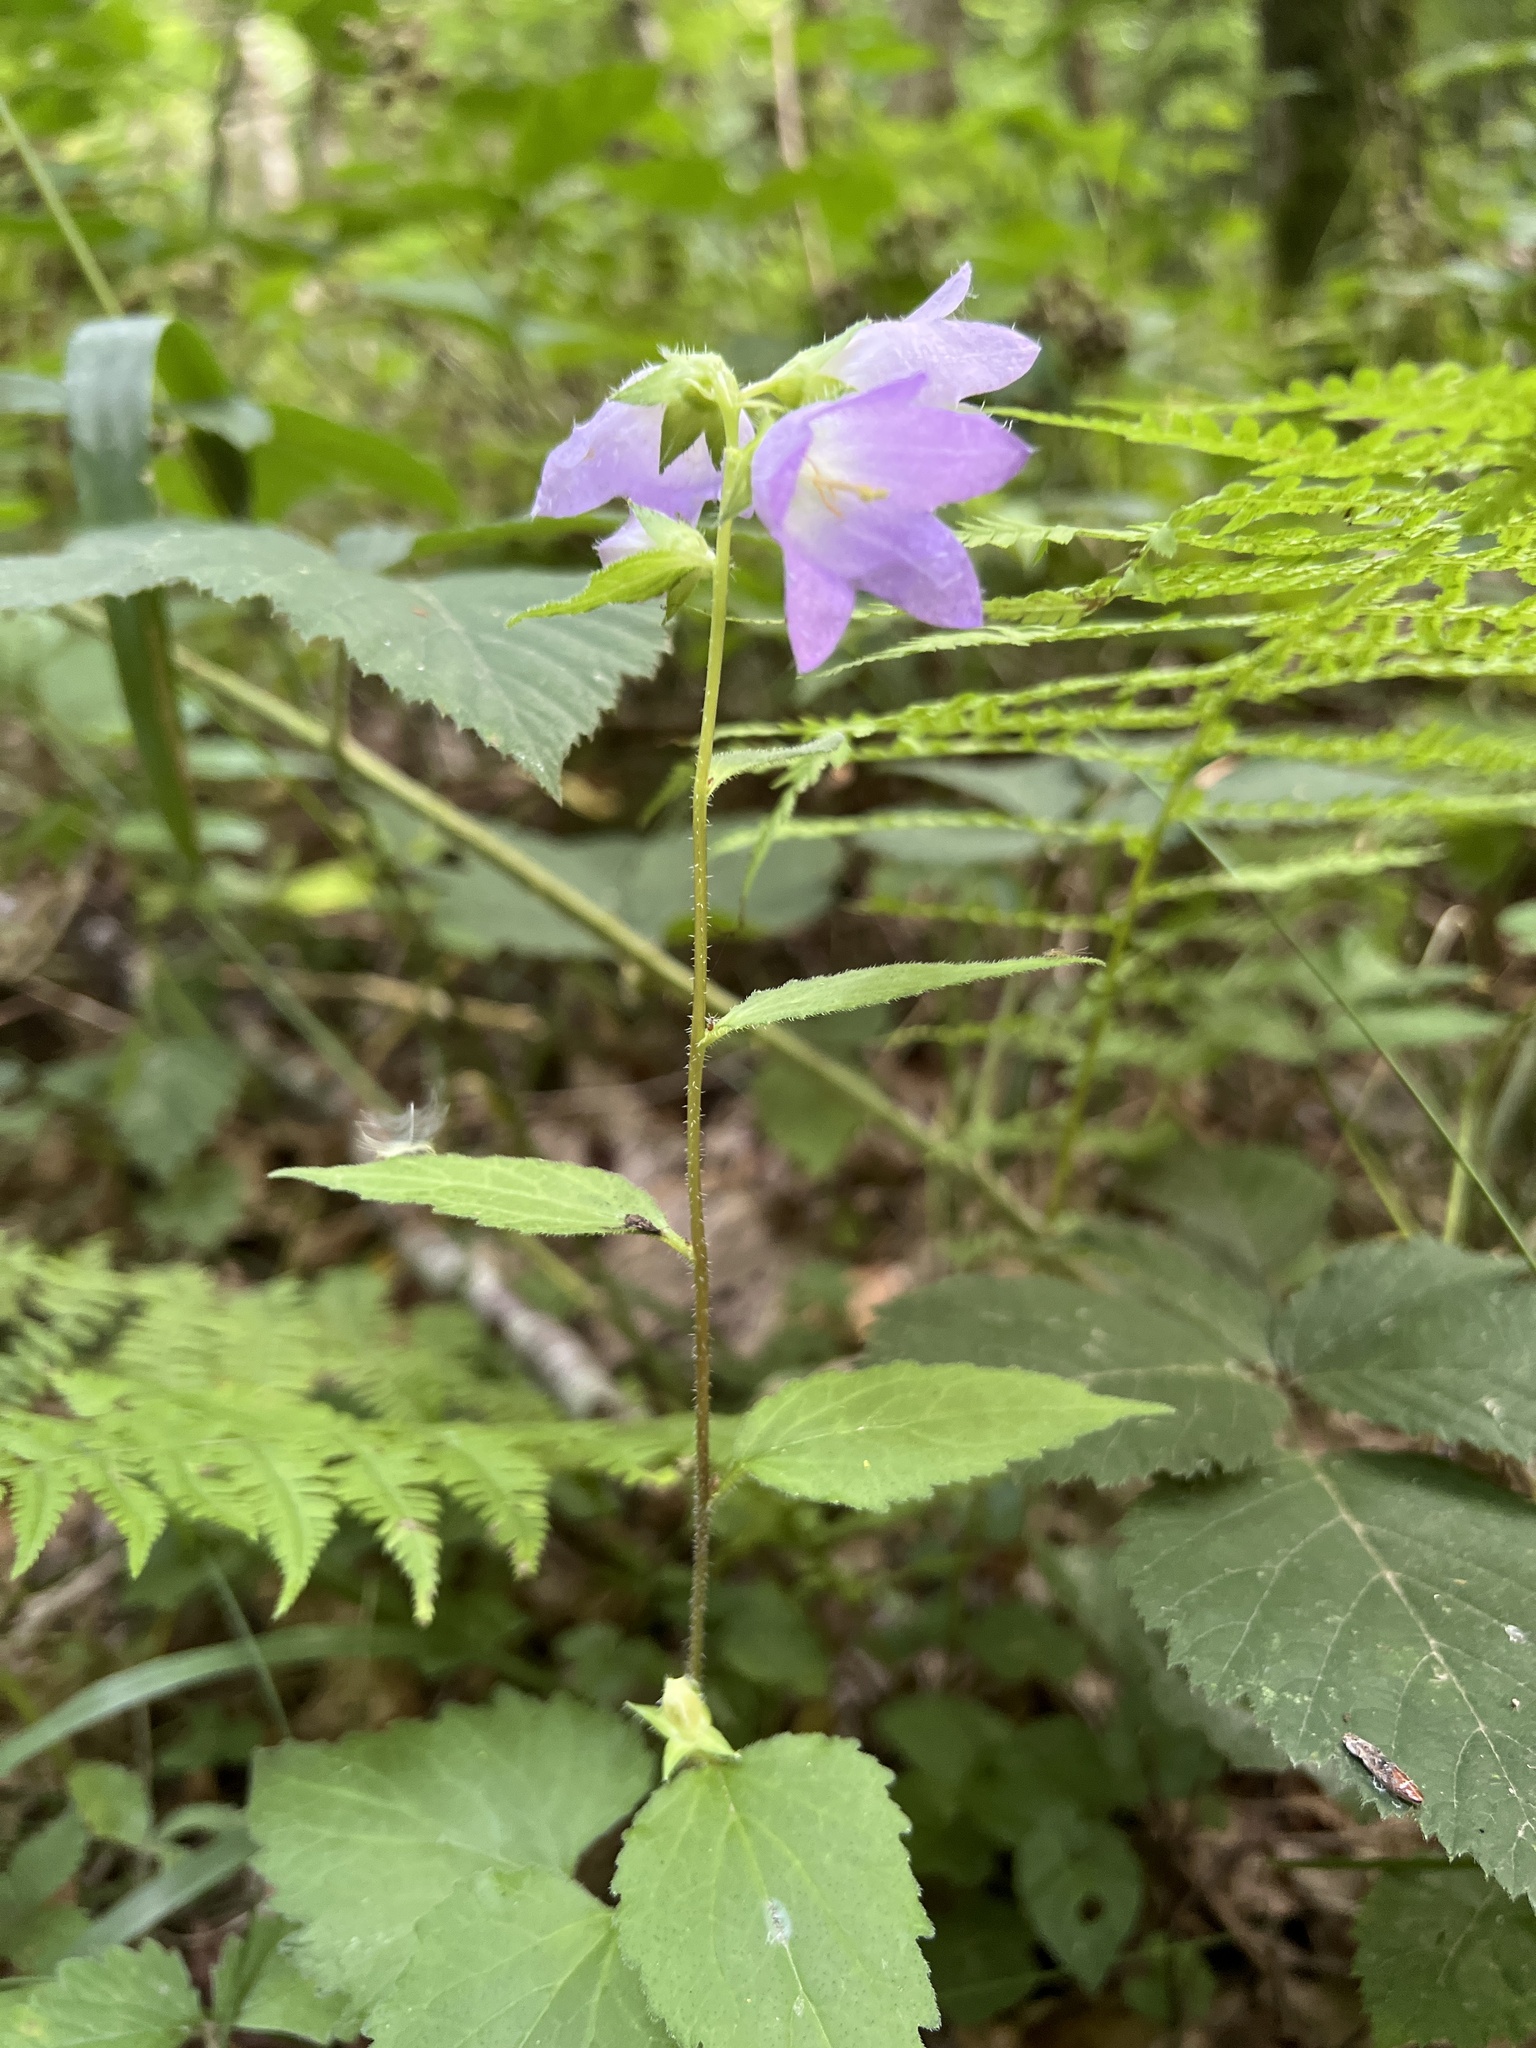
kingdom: Plantae
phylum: Tracheophyta
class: Magnoliopsida
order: Asterales
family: Campanulaceae
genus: Campanula
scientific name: Campanula trachelium
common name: Nettle-leaved bellflower
